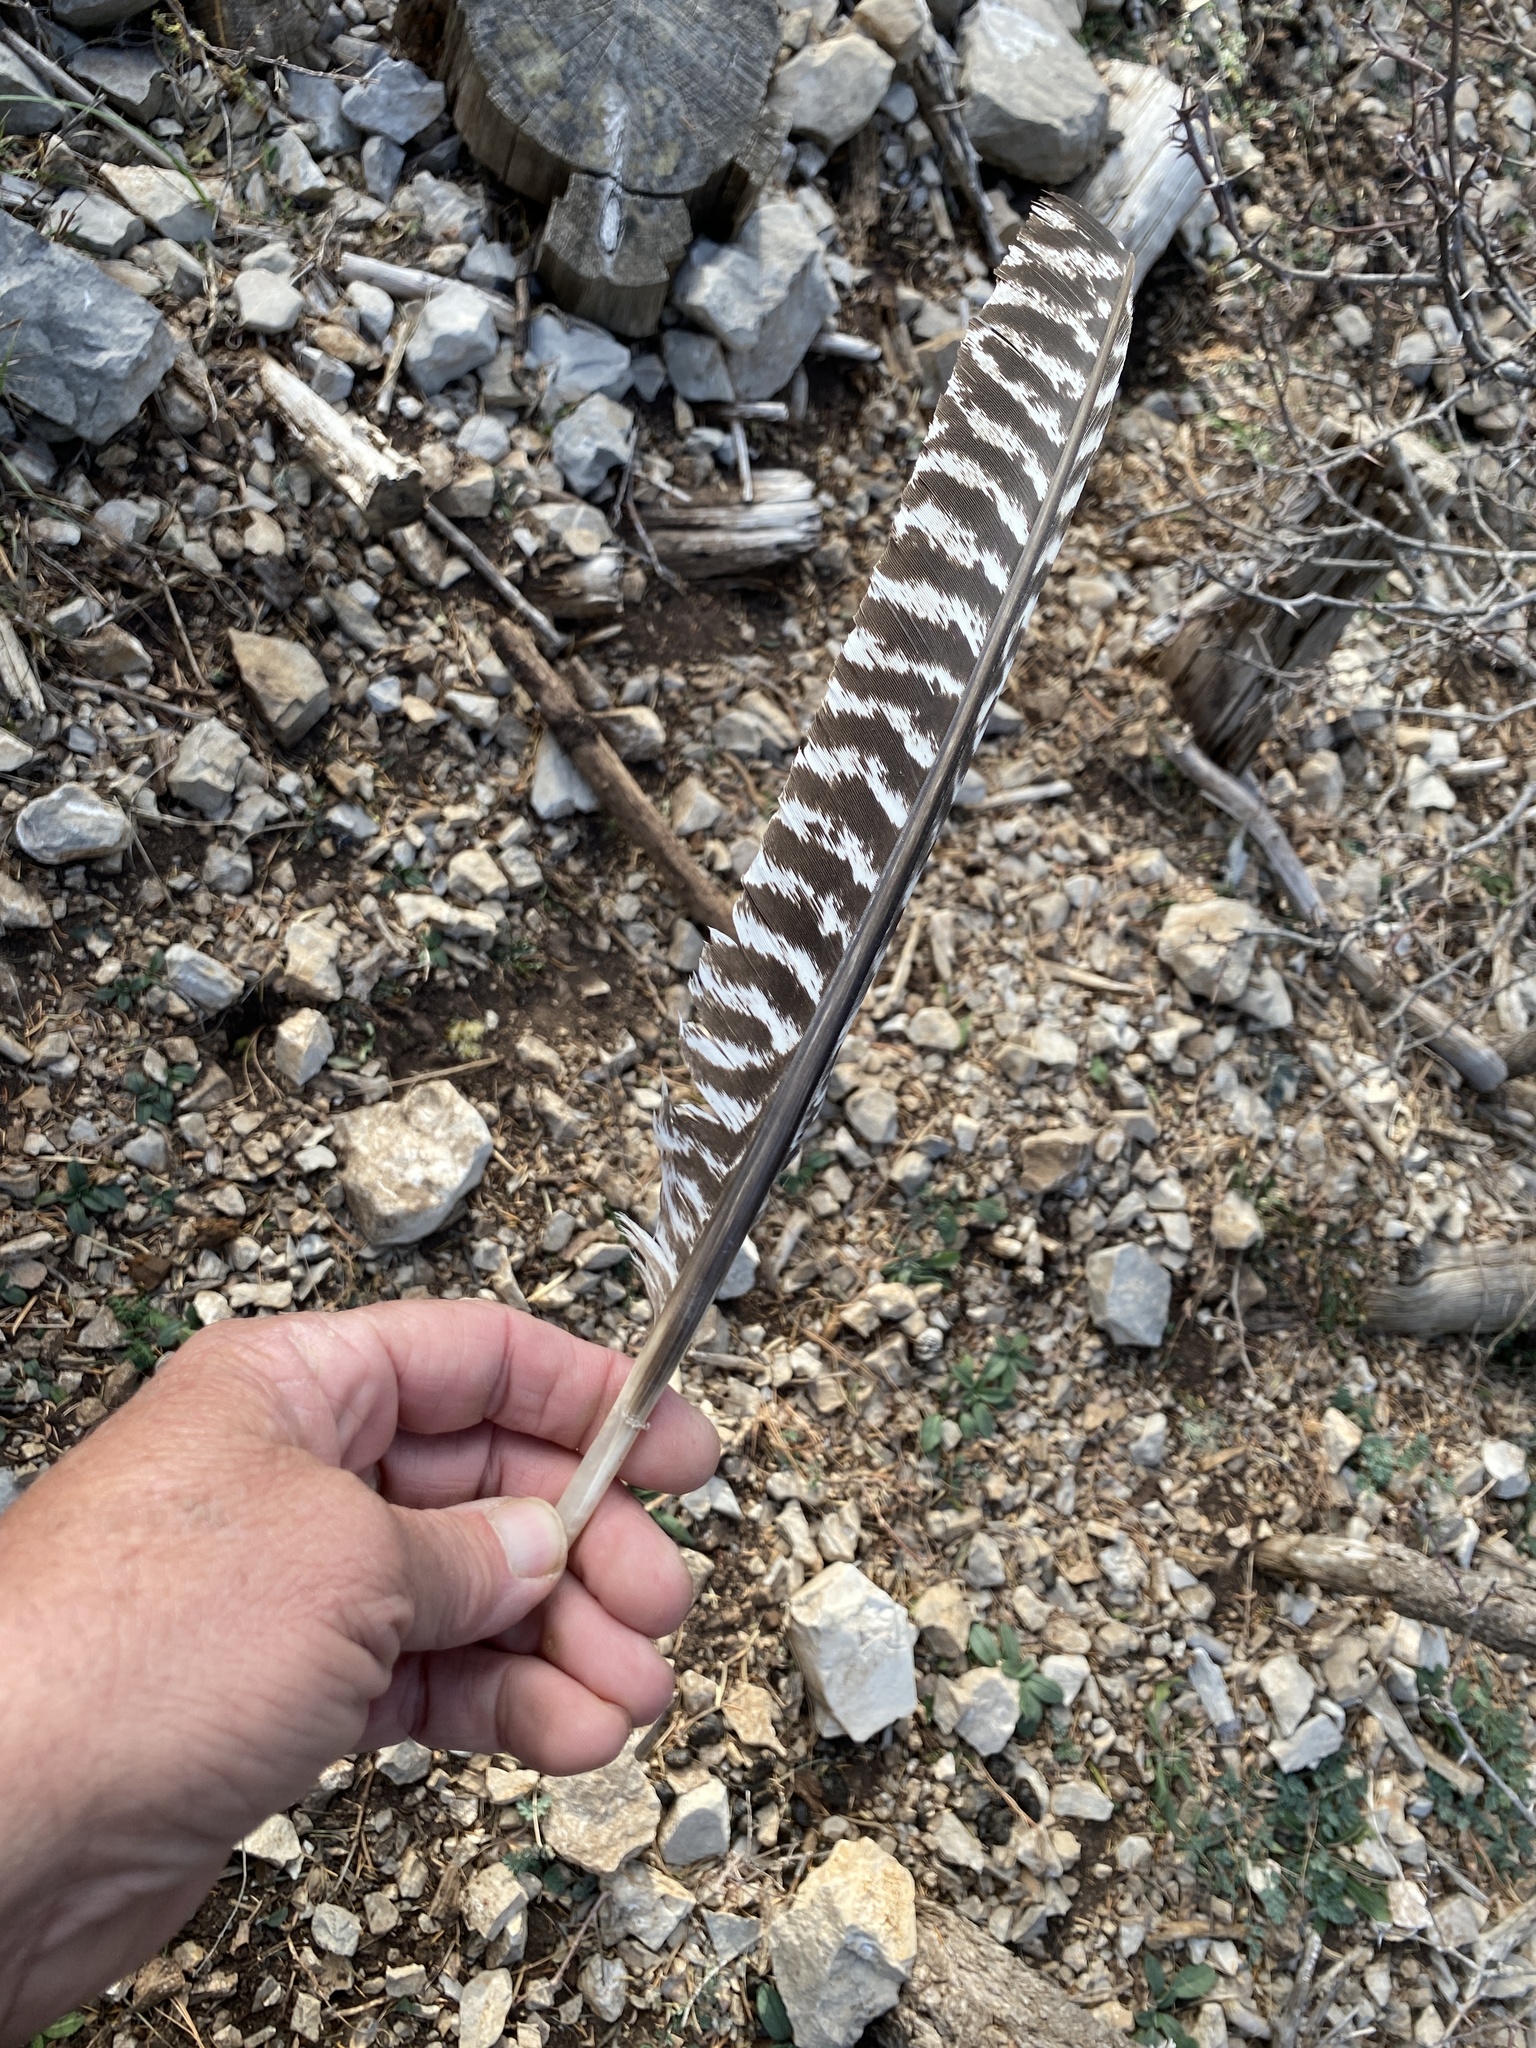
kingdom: Animalia
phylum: Chordata
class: Aves
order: Galliformes
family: Phasianidae
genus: Meleagris
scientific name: Meleagris gallopavo
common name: Wild turkey
